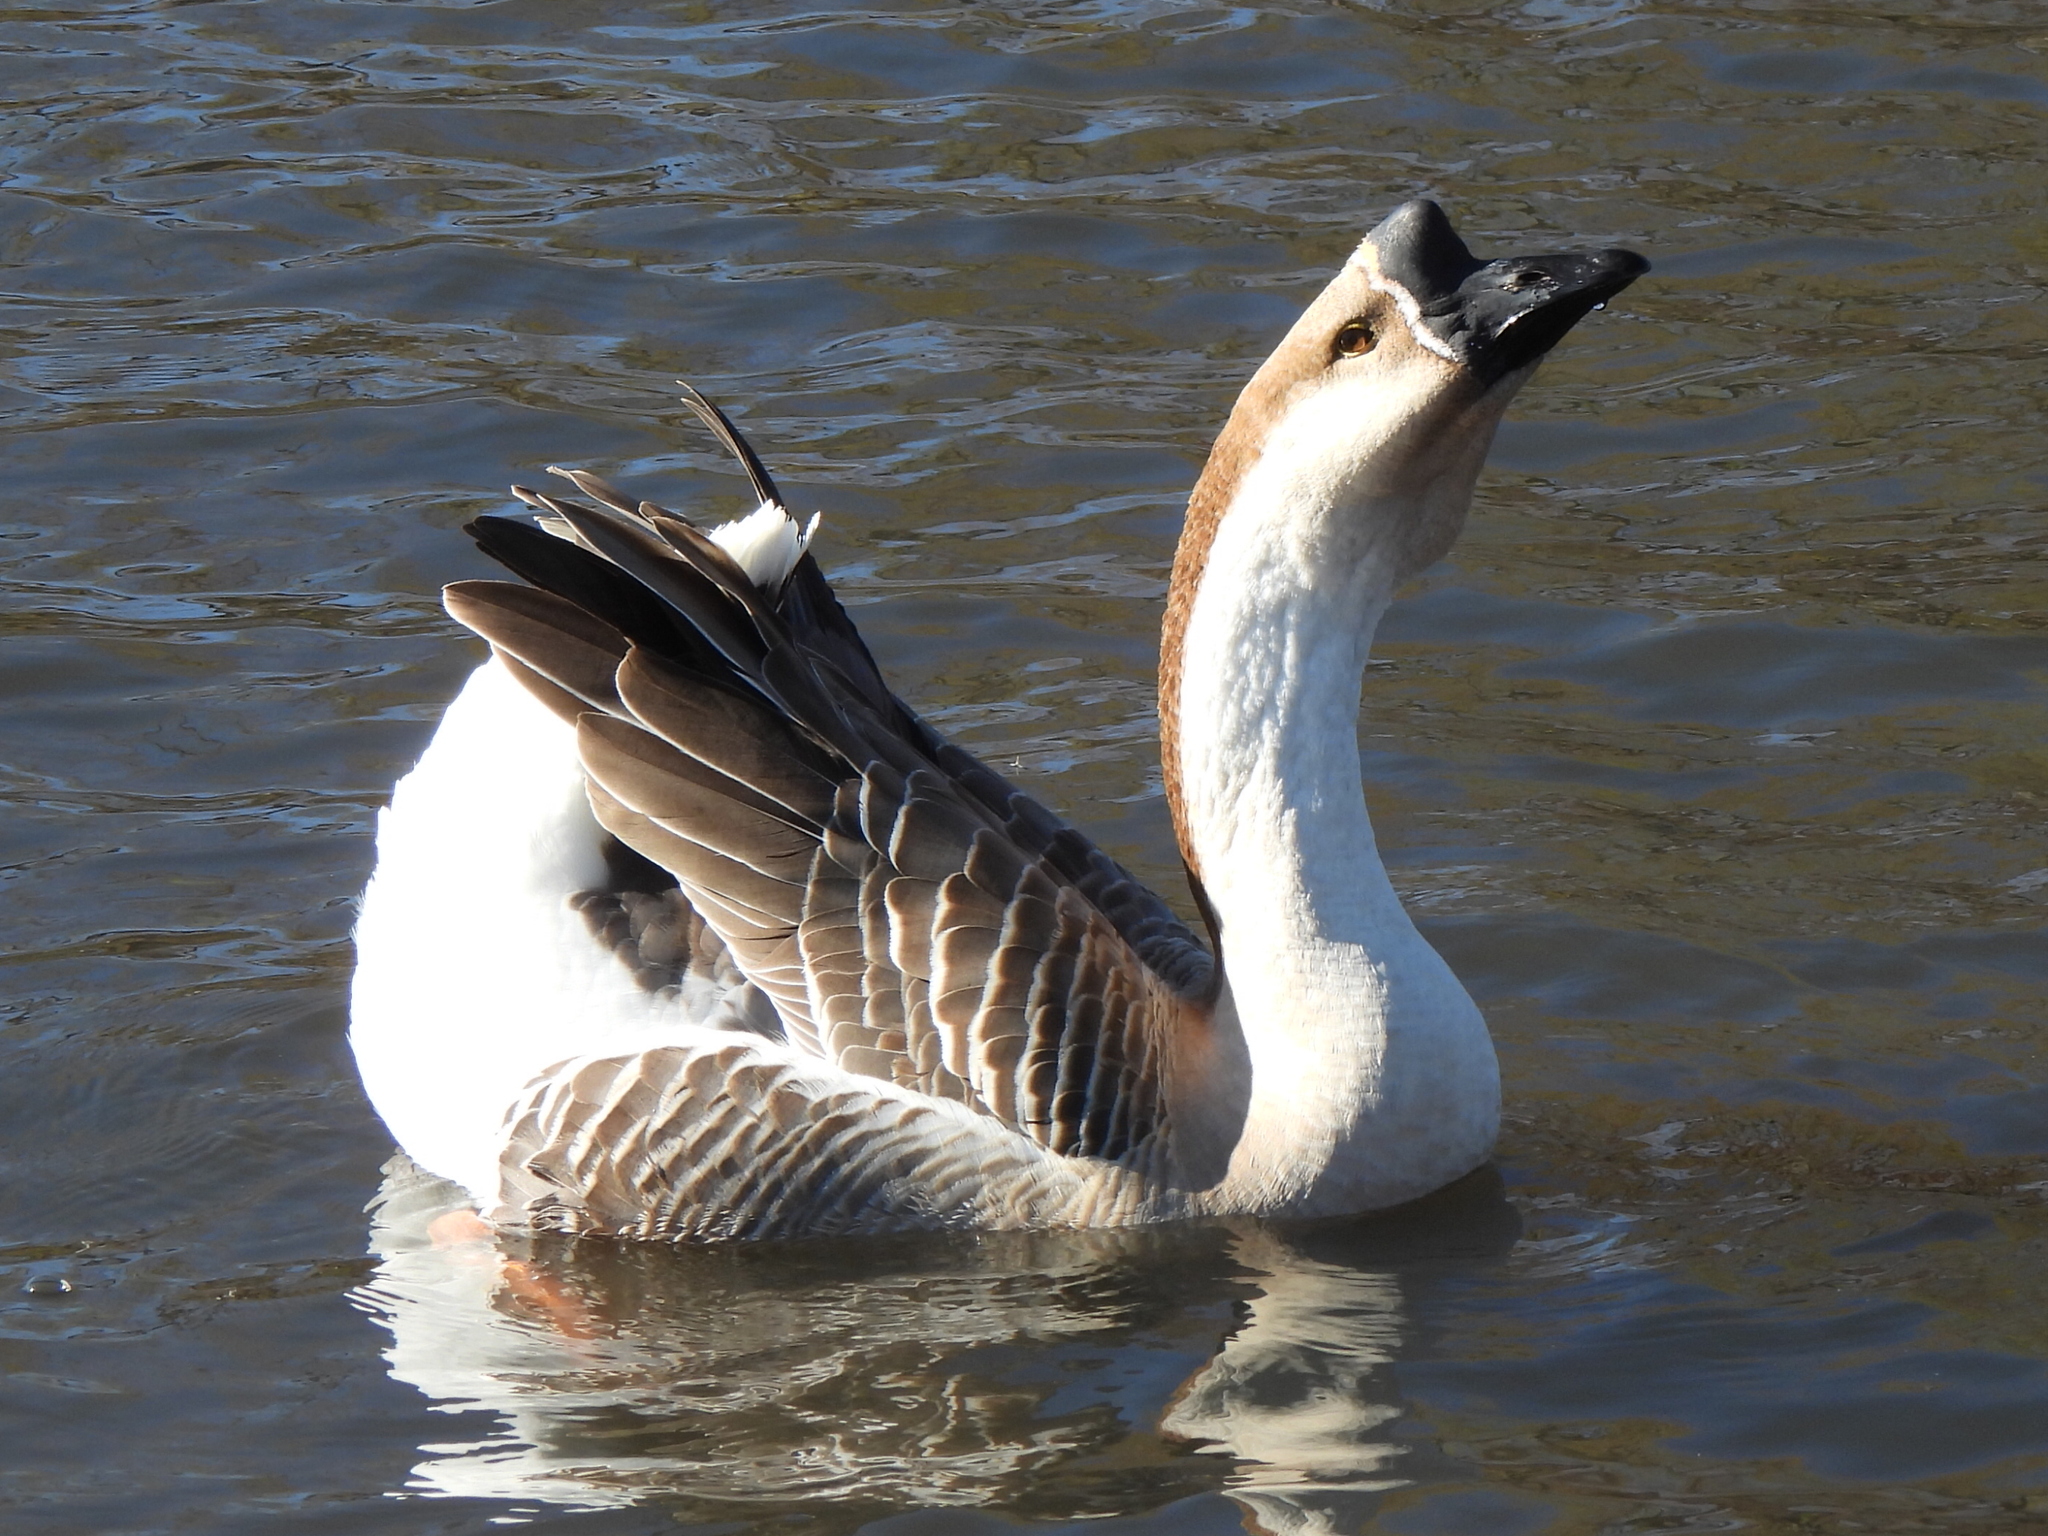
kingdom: Animalia
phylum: Chordata
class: Aves
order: Anseriformes
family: Anatidae
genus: Anser
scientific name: Anser cygnoides
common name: Swan goose
